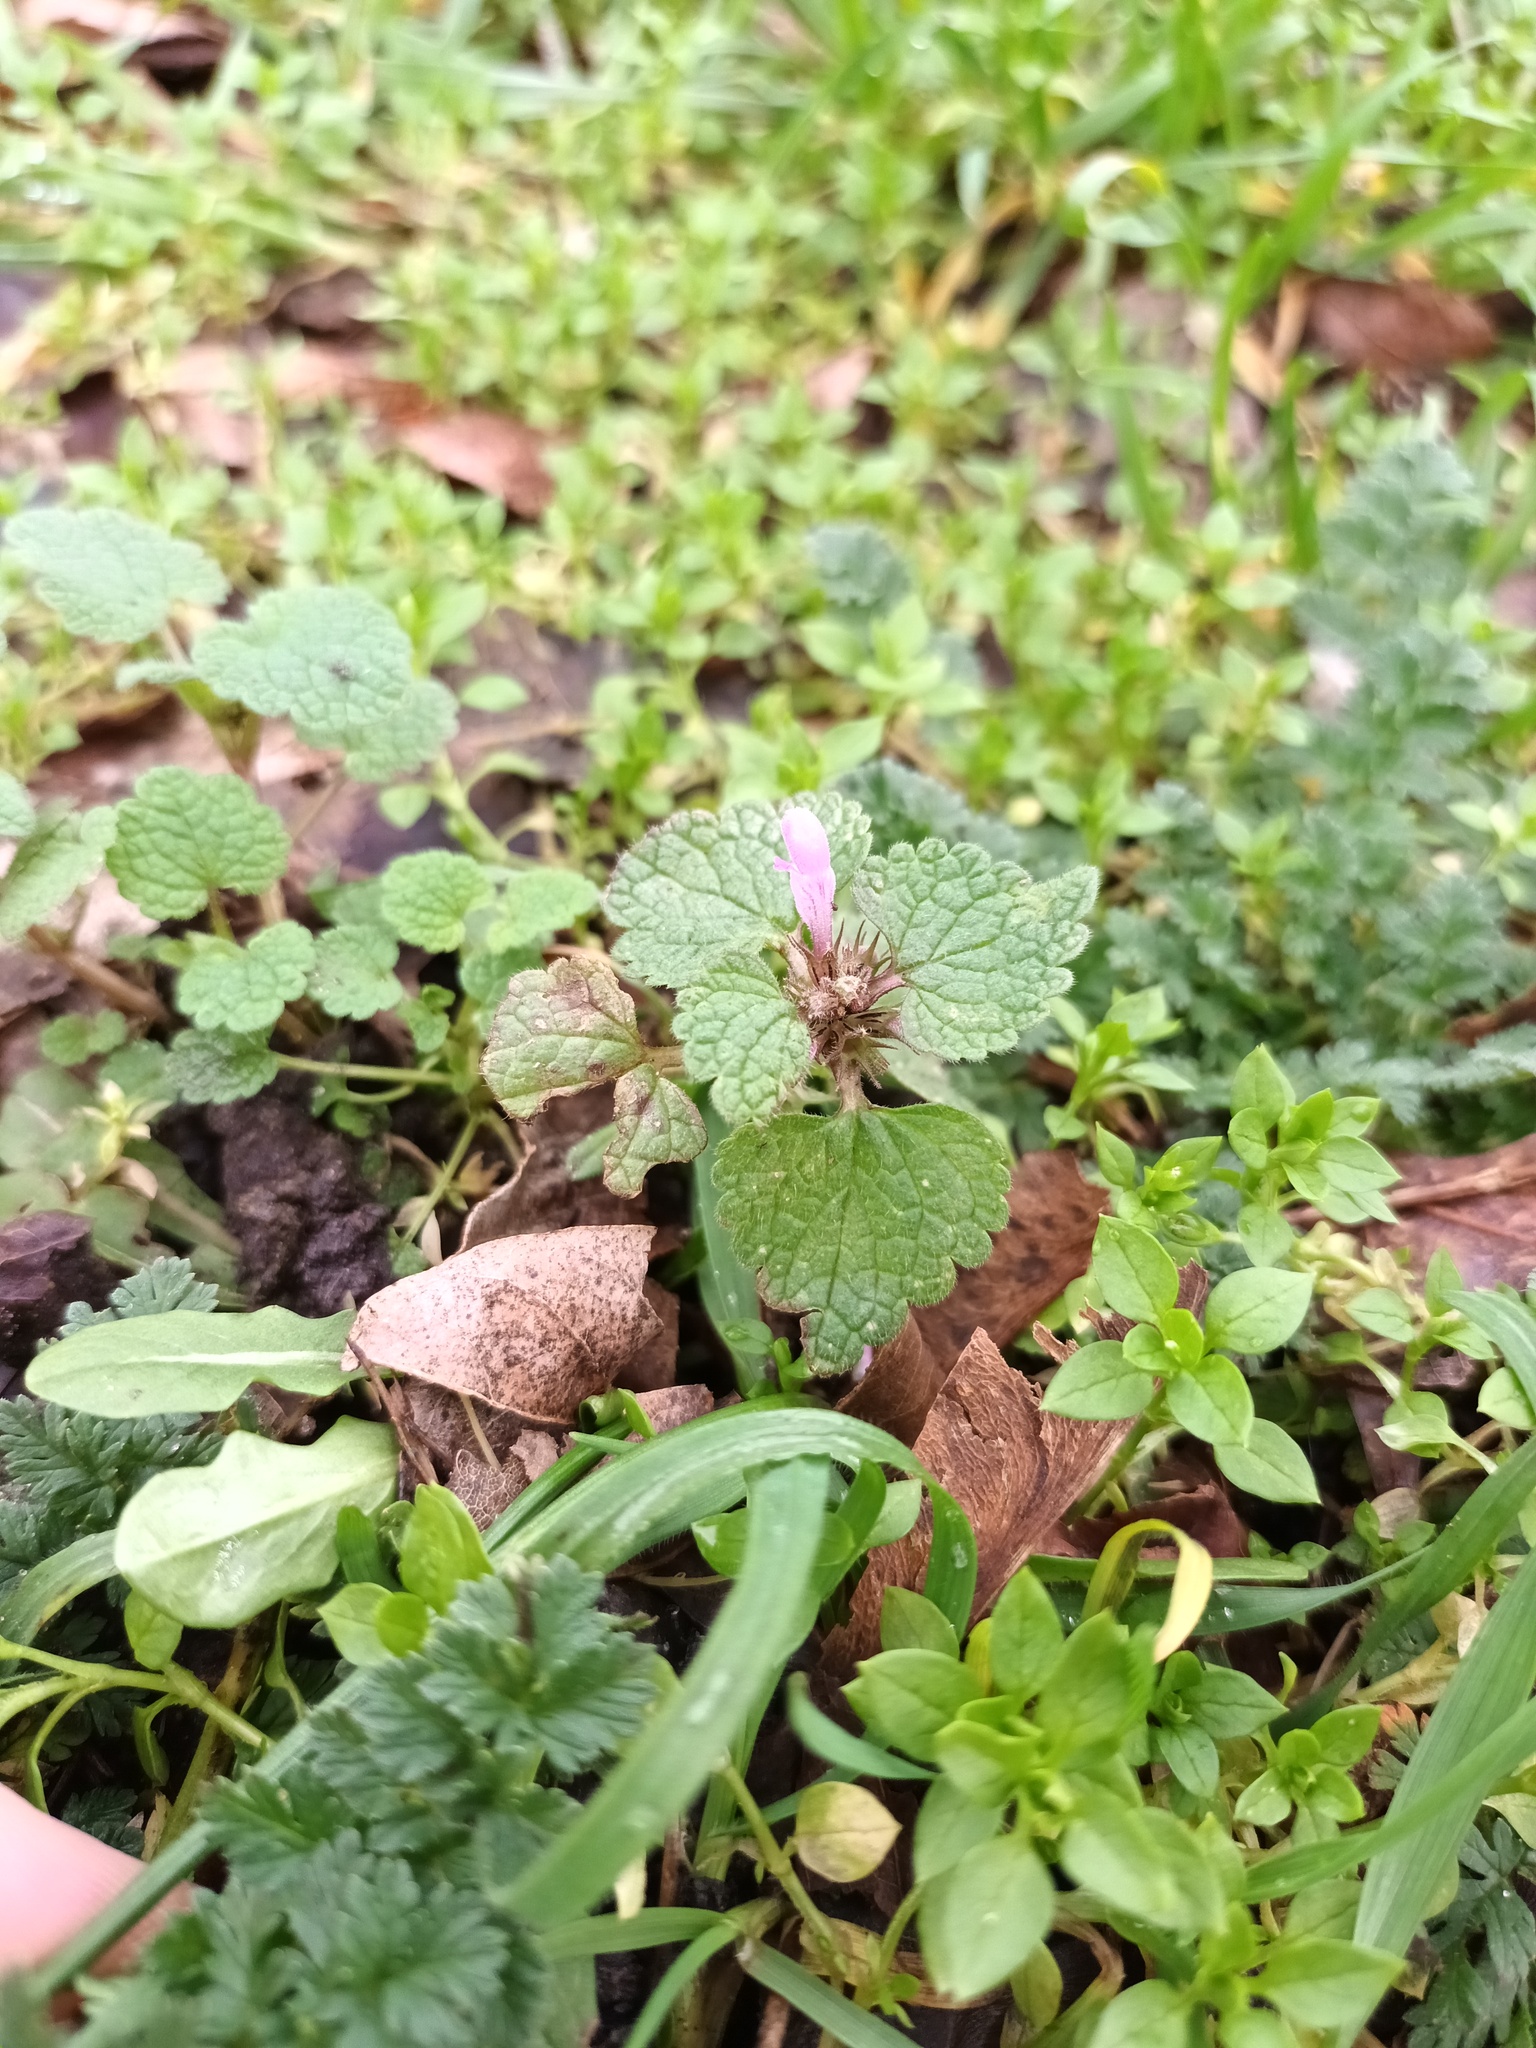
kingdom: Plantae
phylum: Tracheophyta
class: Magnoliopsida
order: Lamiales
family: Lamiaceae
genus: Lamium
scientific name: Lamium purpureum
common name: Red dead-nettle
